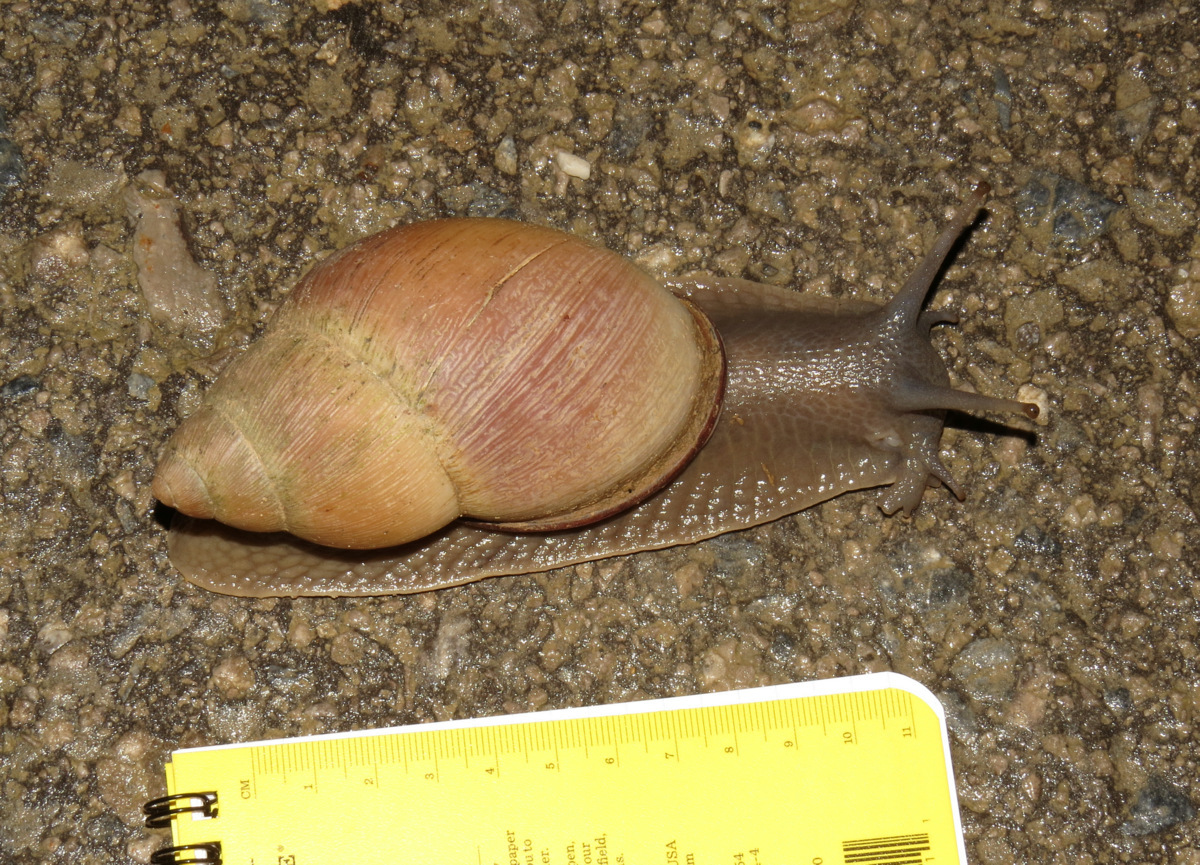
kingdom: Animalia
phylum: Mollusca
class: Gastropoda
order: Stylommatophora
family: Strophocheilidae
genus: Megalobulimus
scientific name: Megalobulimus oblongus
